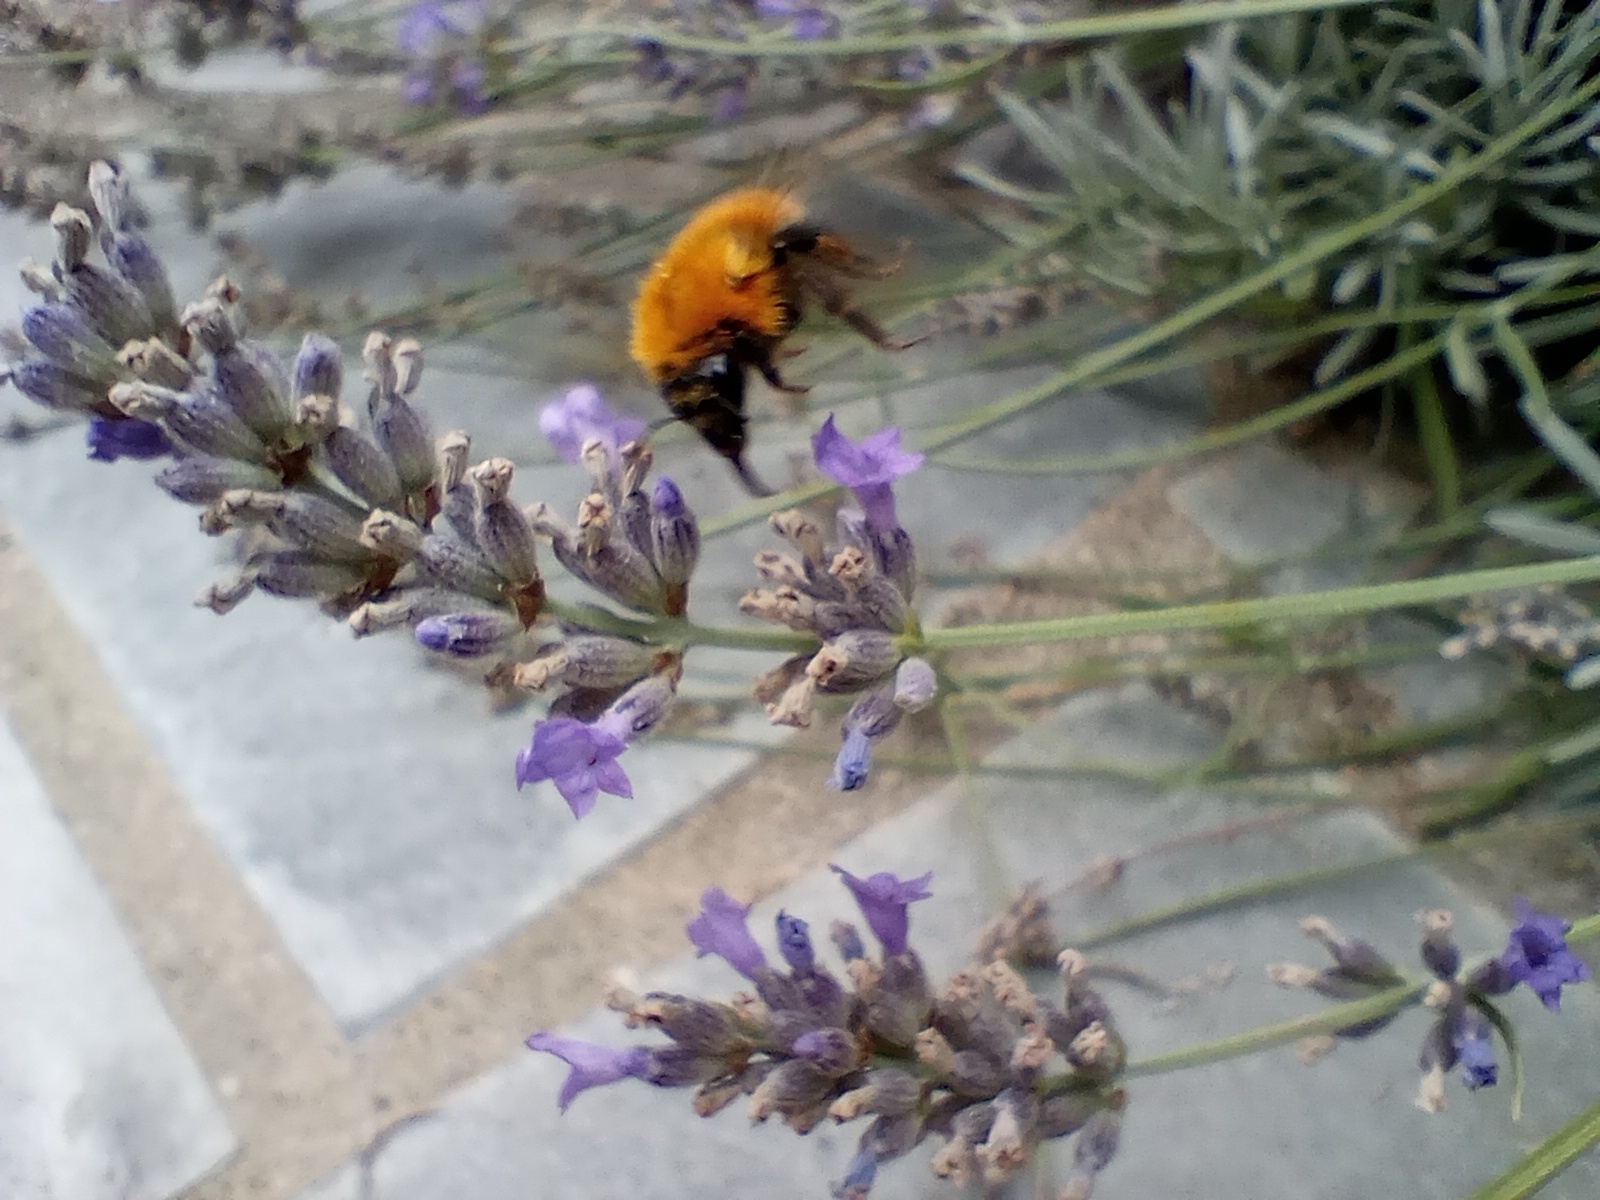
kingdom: Animalia
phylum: Arthropoda
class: Insecta
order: Hymenoptera
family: Apidae
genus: Bombus
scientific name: Bombus pascuorum
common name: Common carder bee
